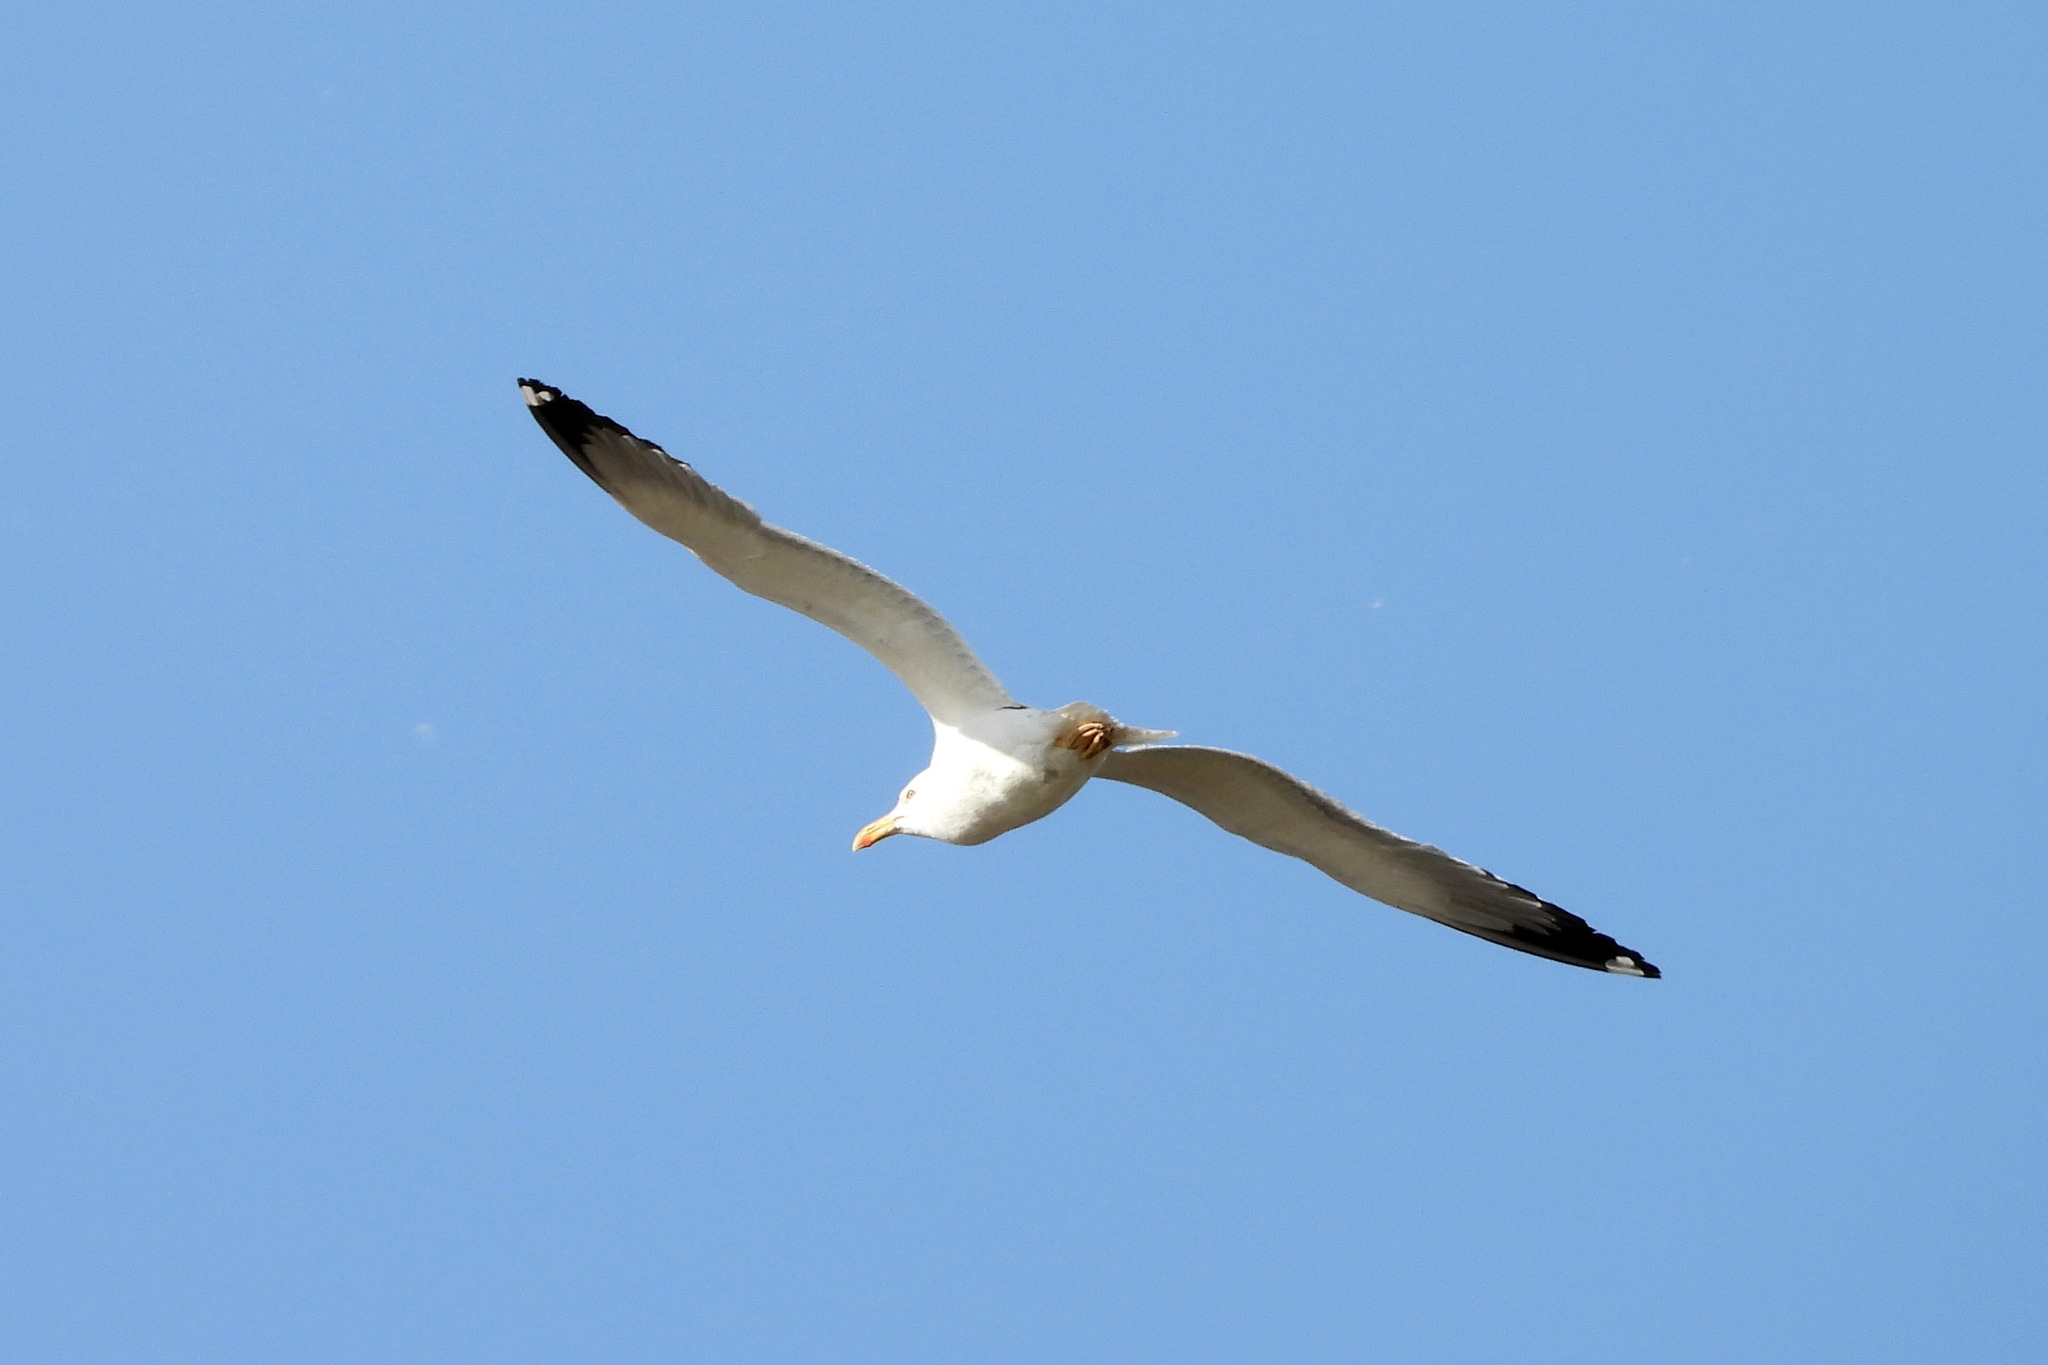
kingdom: Animalia
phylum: Chordata
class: Aves
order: Charadriiformes
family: Laridae
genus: Larus
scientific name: Larus fuscus
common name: Lesser black-backed gull
